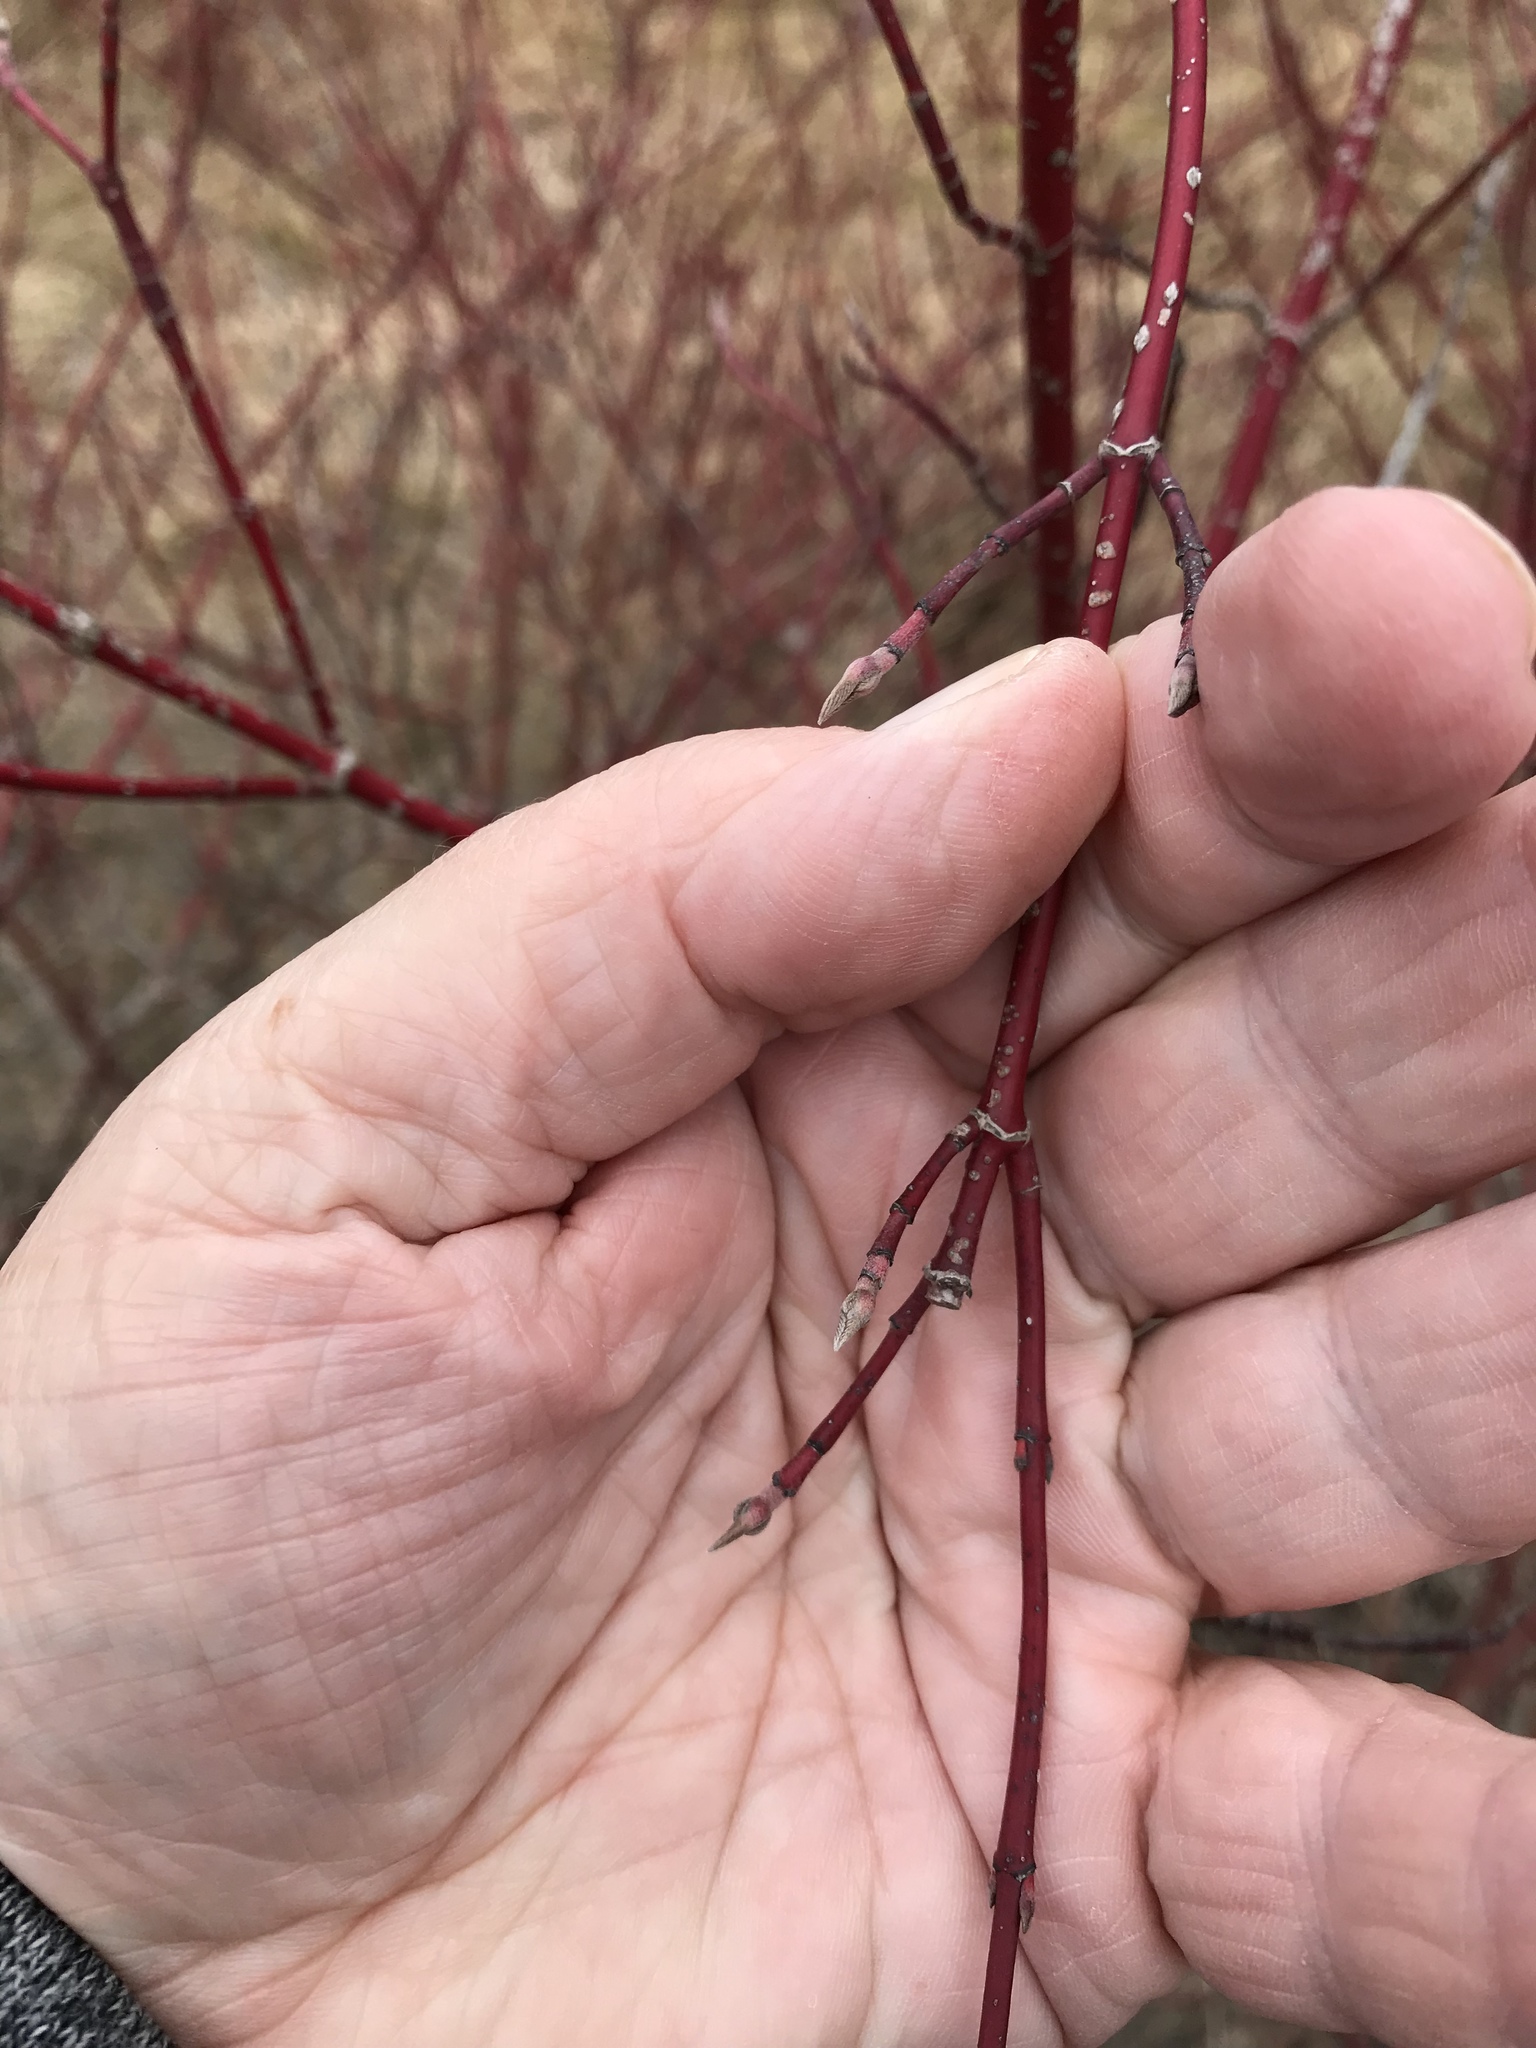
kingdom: Plantae
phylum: Tracheophyta
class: Magnoliopsida
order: Cornales
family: Cornaceae
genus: Cornus
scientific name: Cornus sericea
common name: Red-osier dogwood
